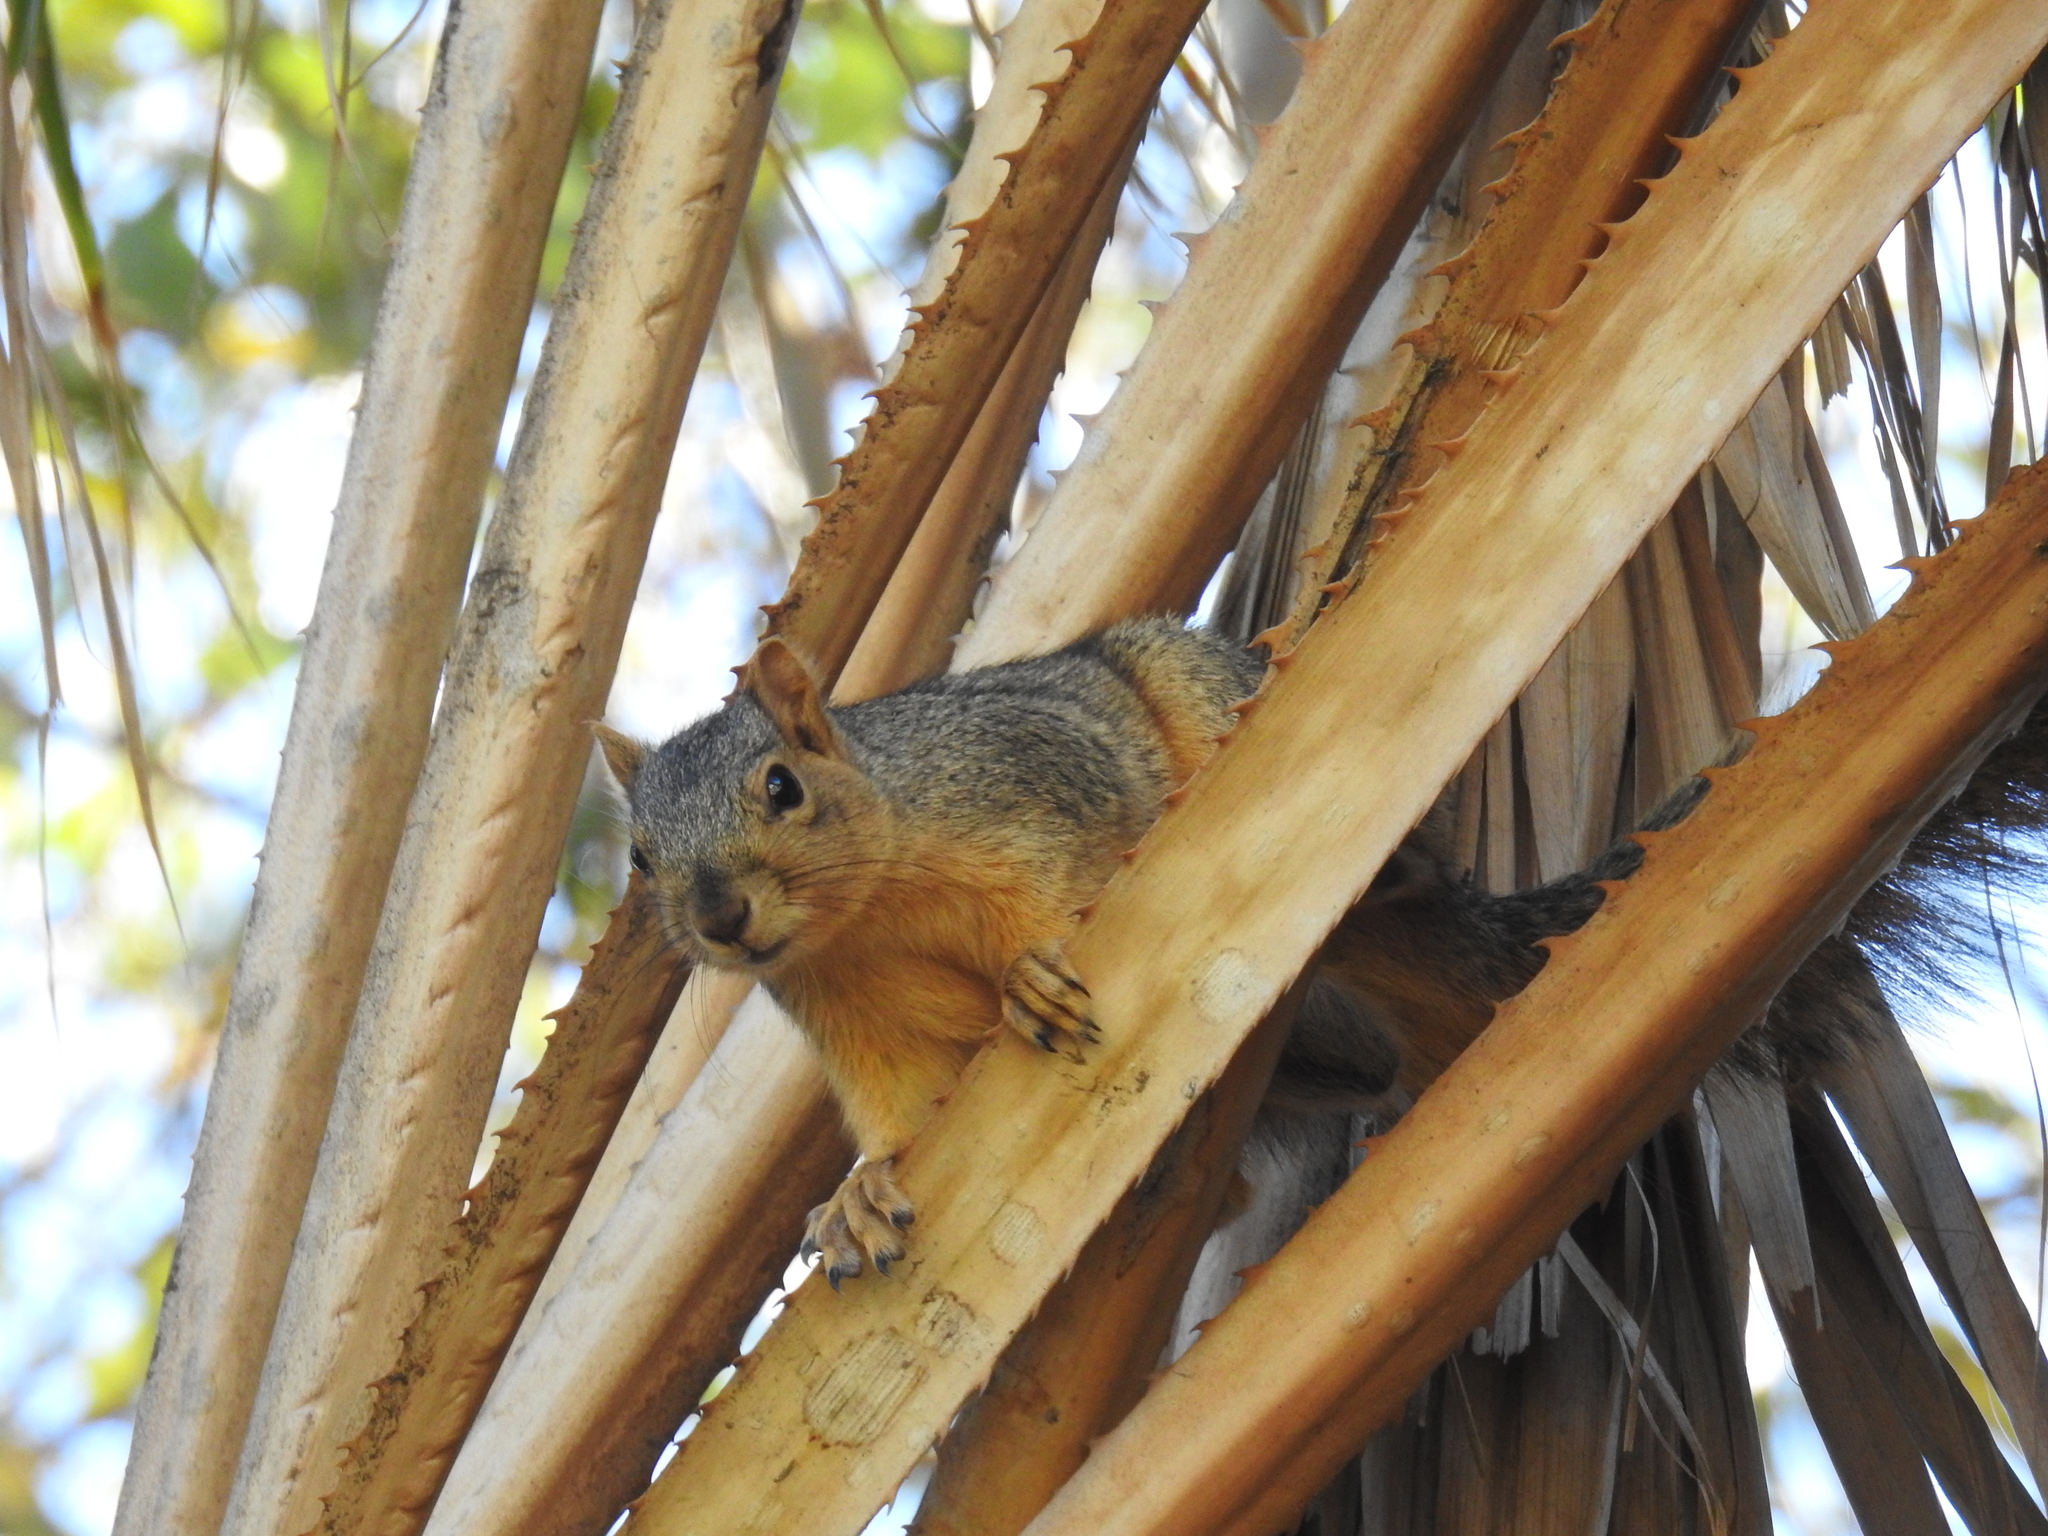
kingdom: Animalia
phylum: Chordata
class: Mammalia
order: Rodentia
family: Sciuridae
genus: Sciurus
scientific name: Sciurus niger
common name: Fox squirrel
